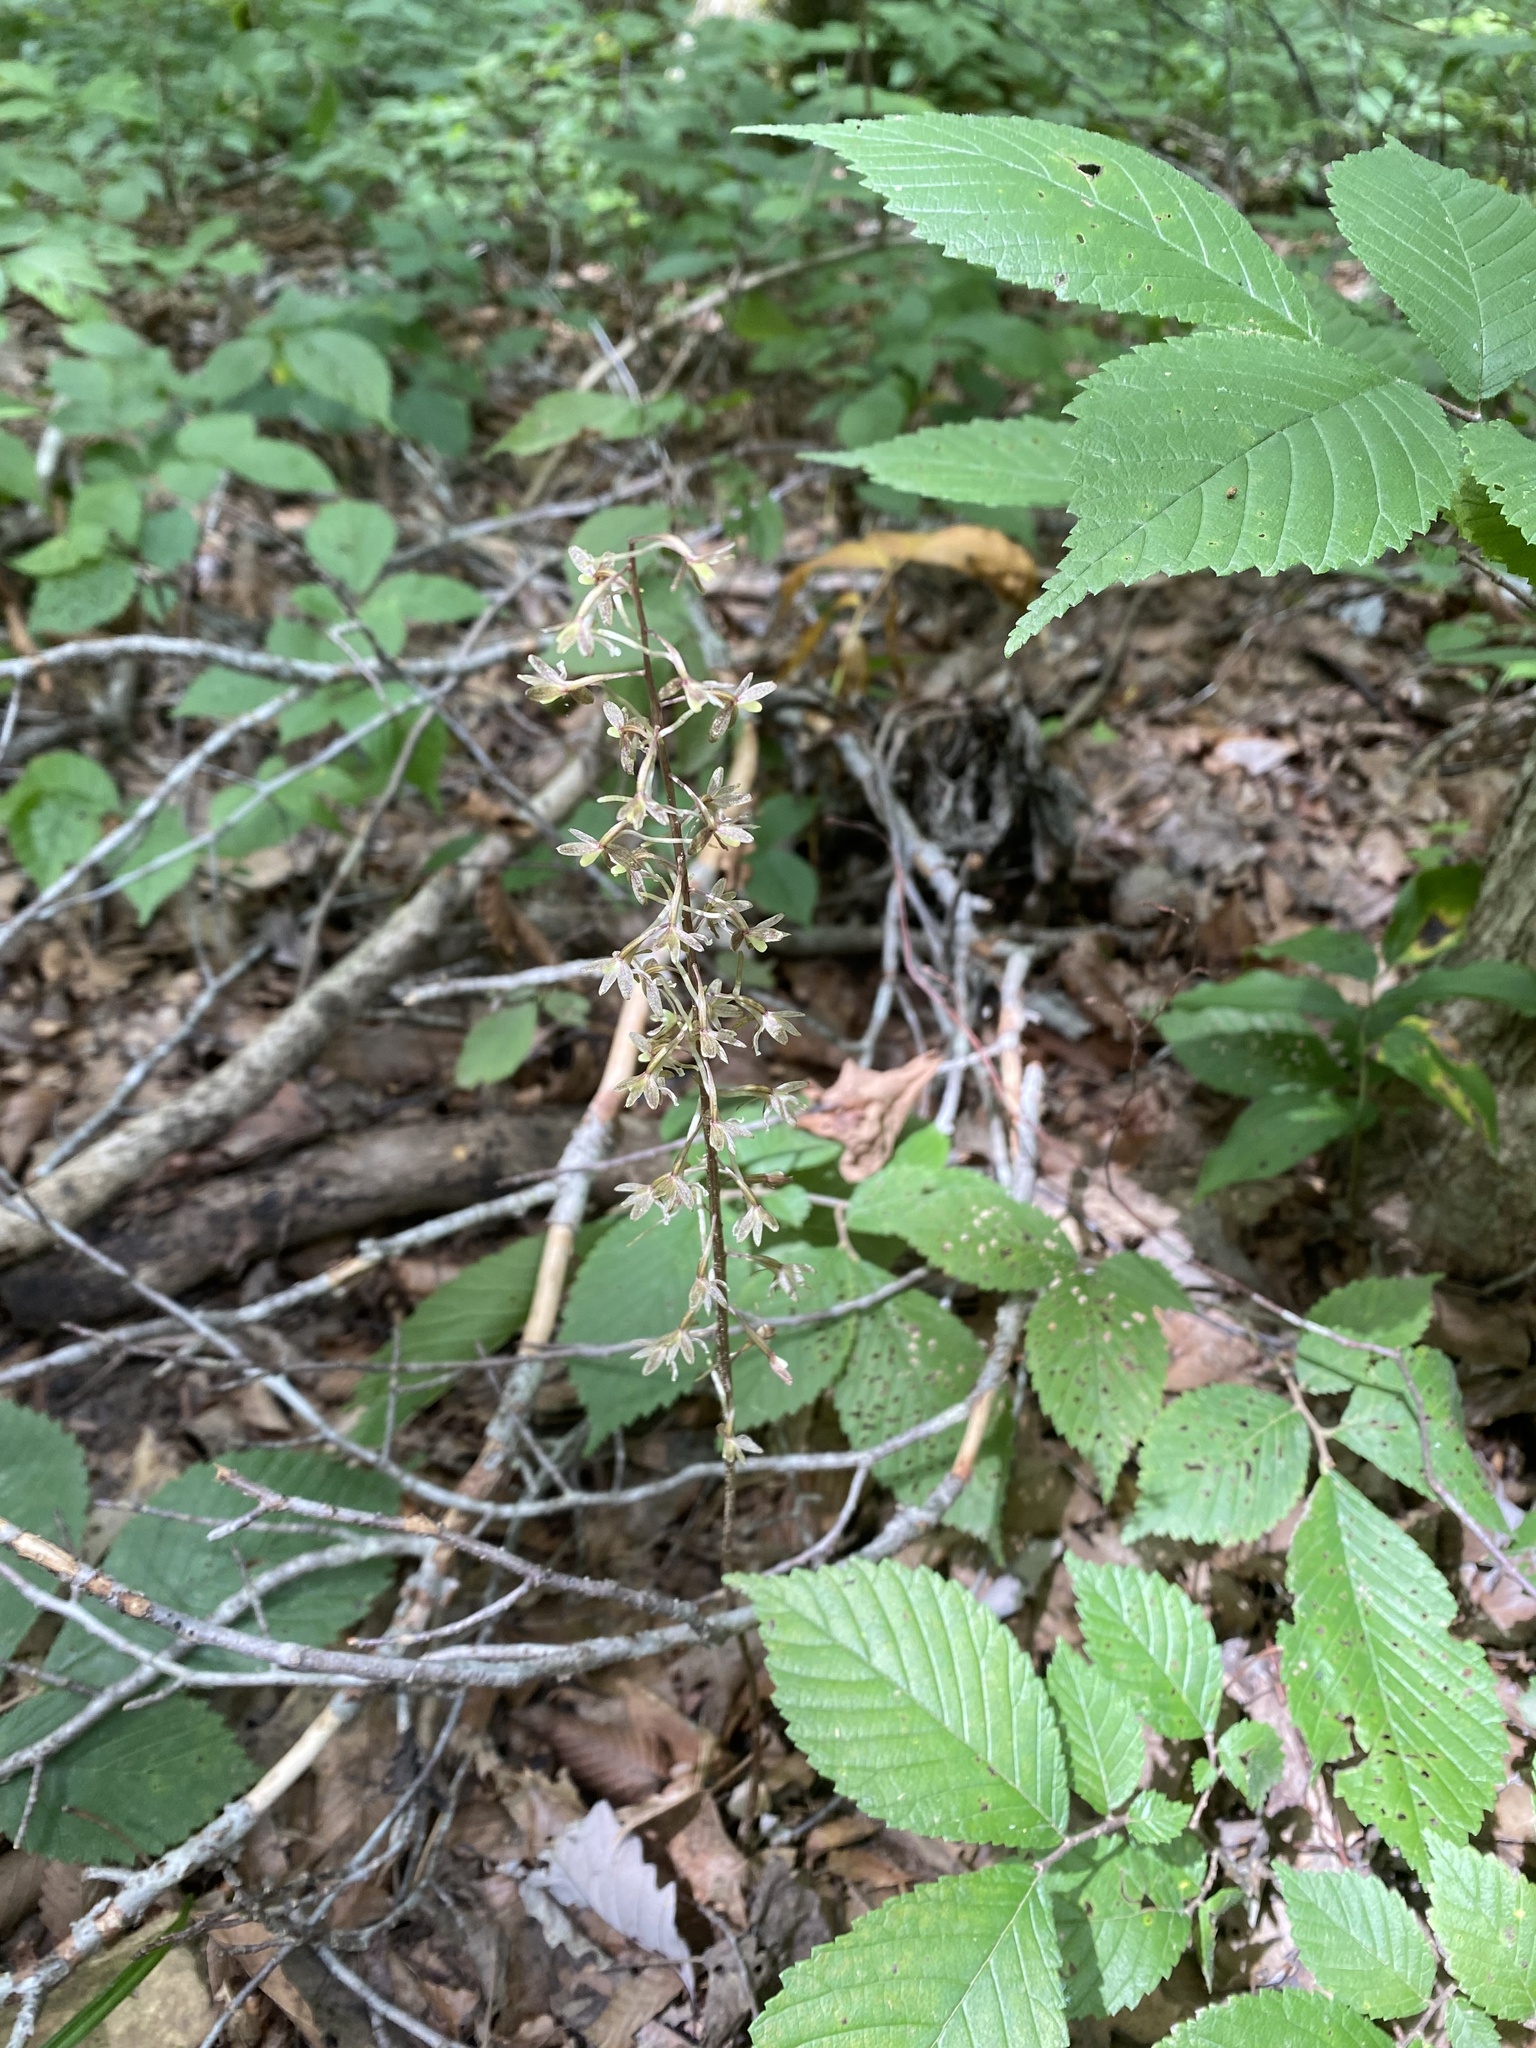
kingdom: Plantae
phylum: Tracheophyta
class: Liliopsida
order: Asparagales
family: Orchidaceae
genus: Tipularia
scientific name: Tipularia discolor
